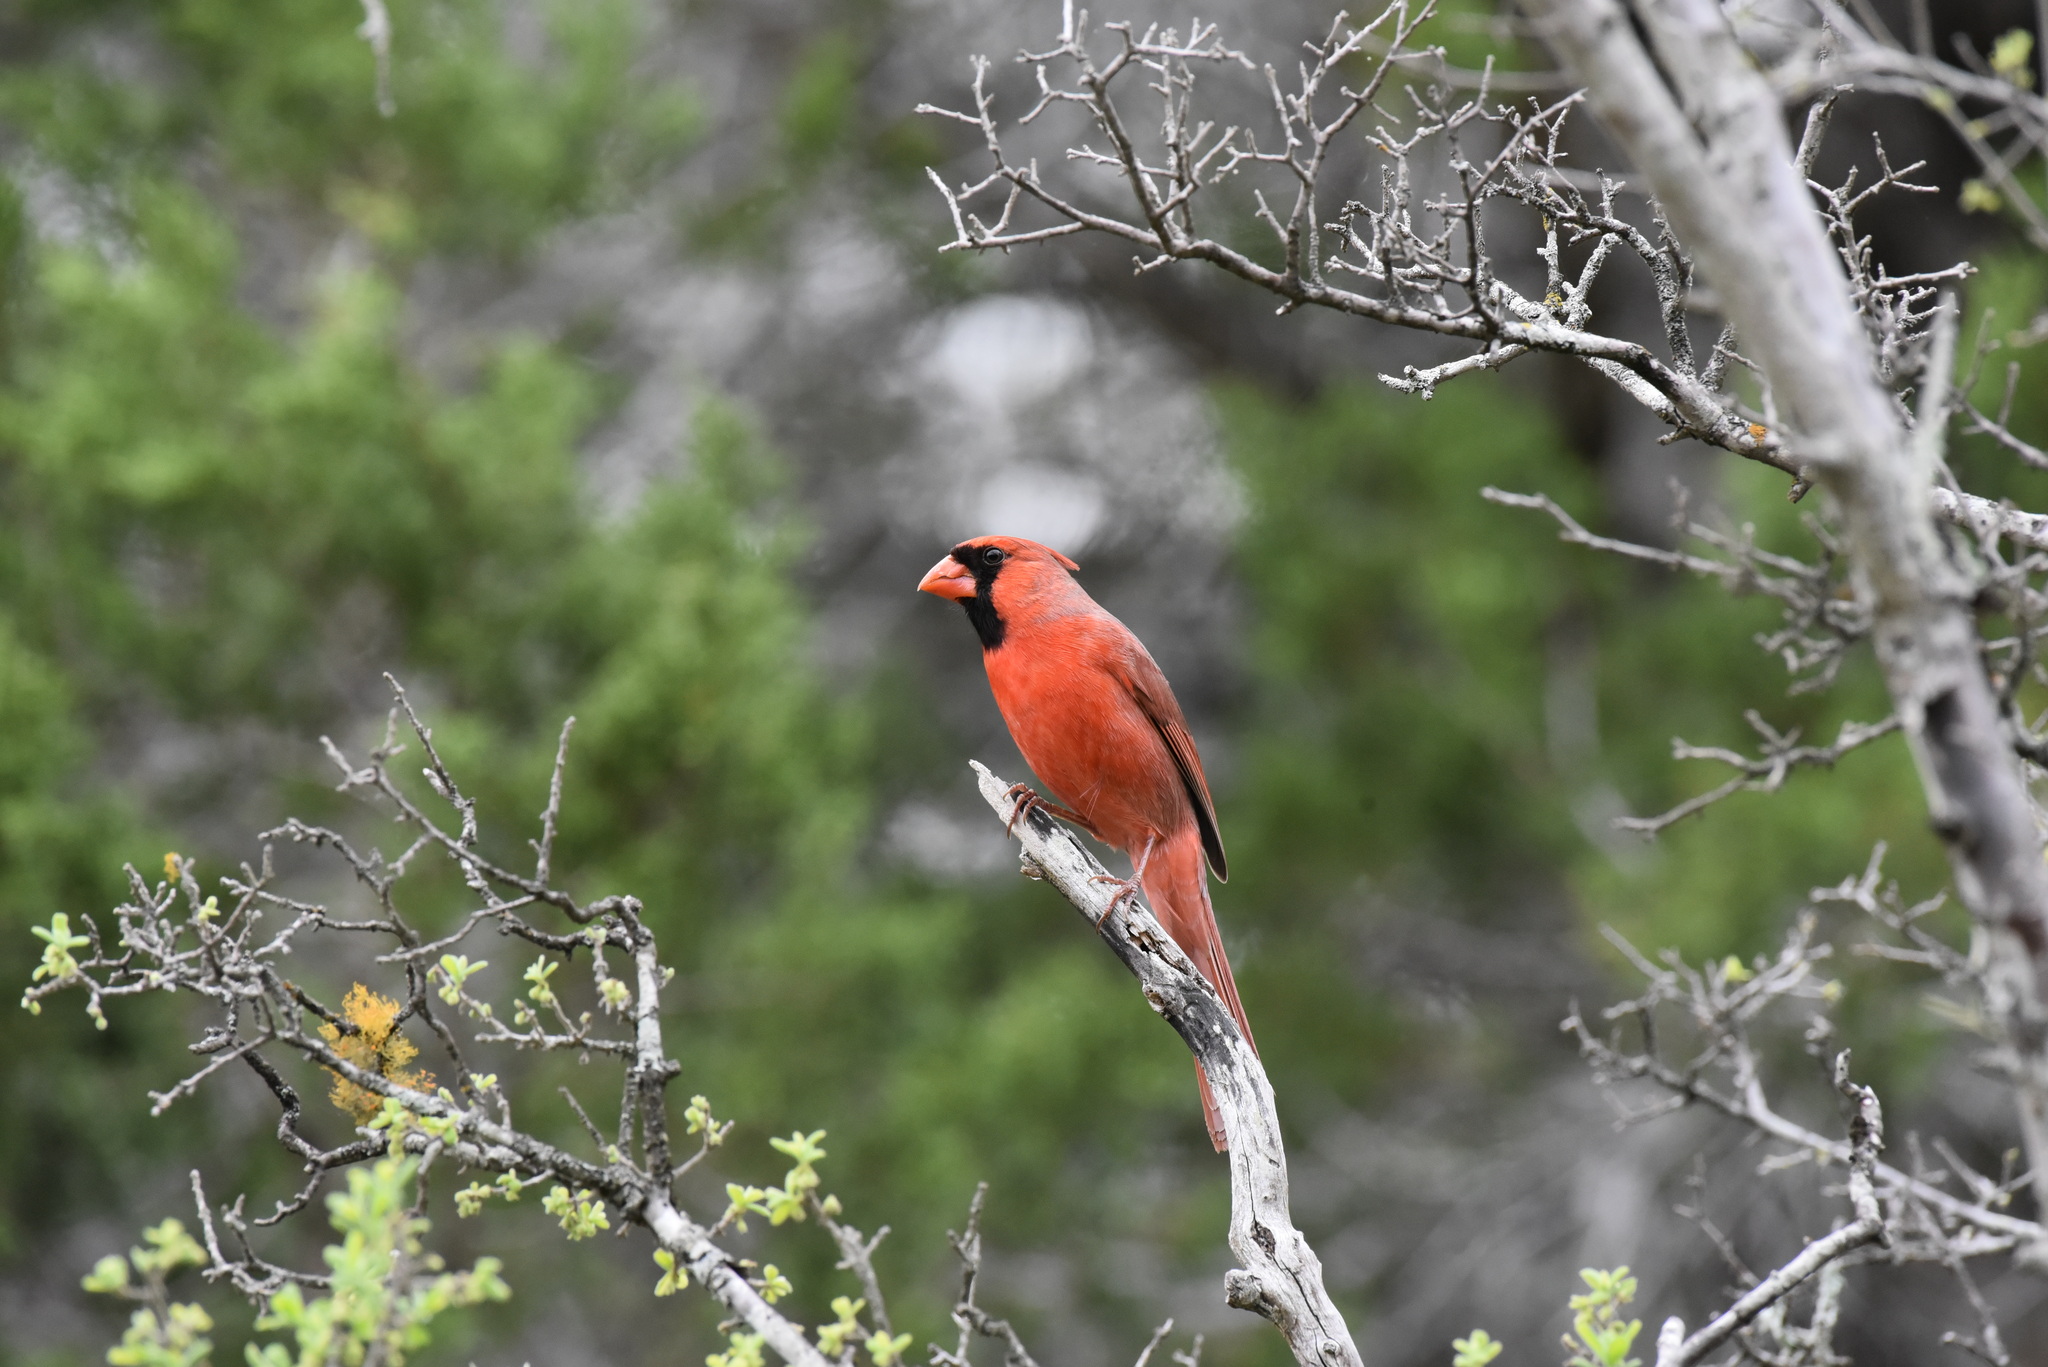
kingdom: Animalia
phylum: Chordata
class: Aves
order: Passeriformes
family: Cardinalidae
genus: Cardinalis
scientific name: Cardinalis cardinalis
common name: Northern cardinal
